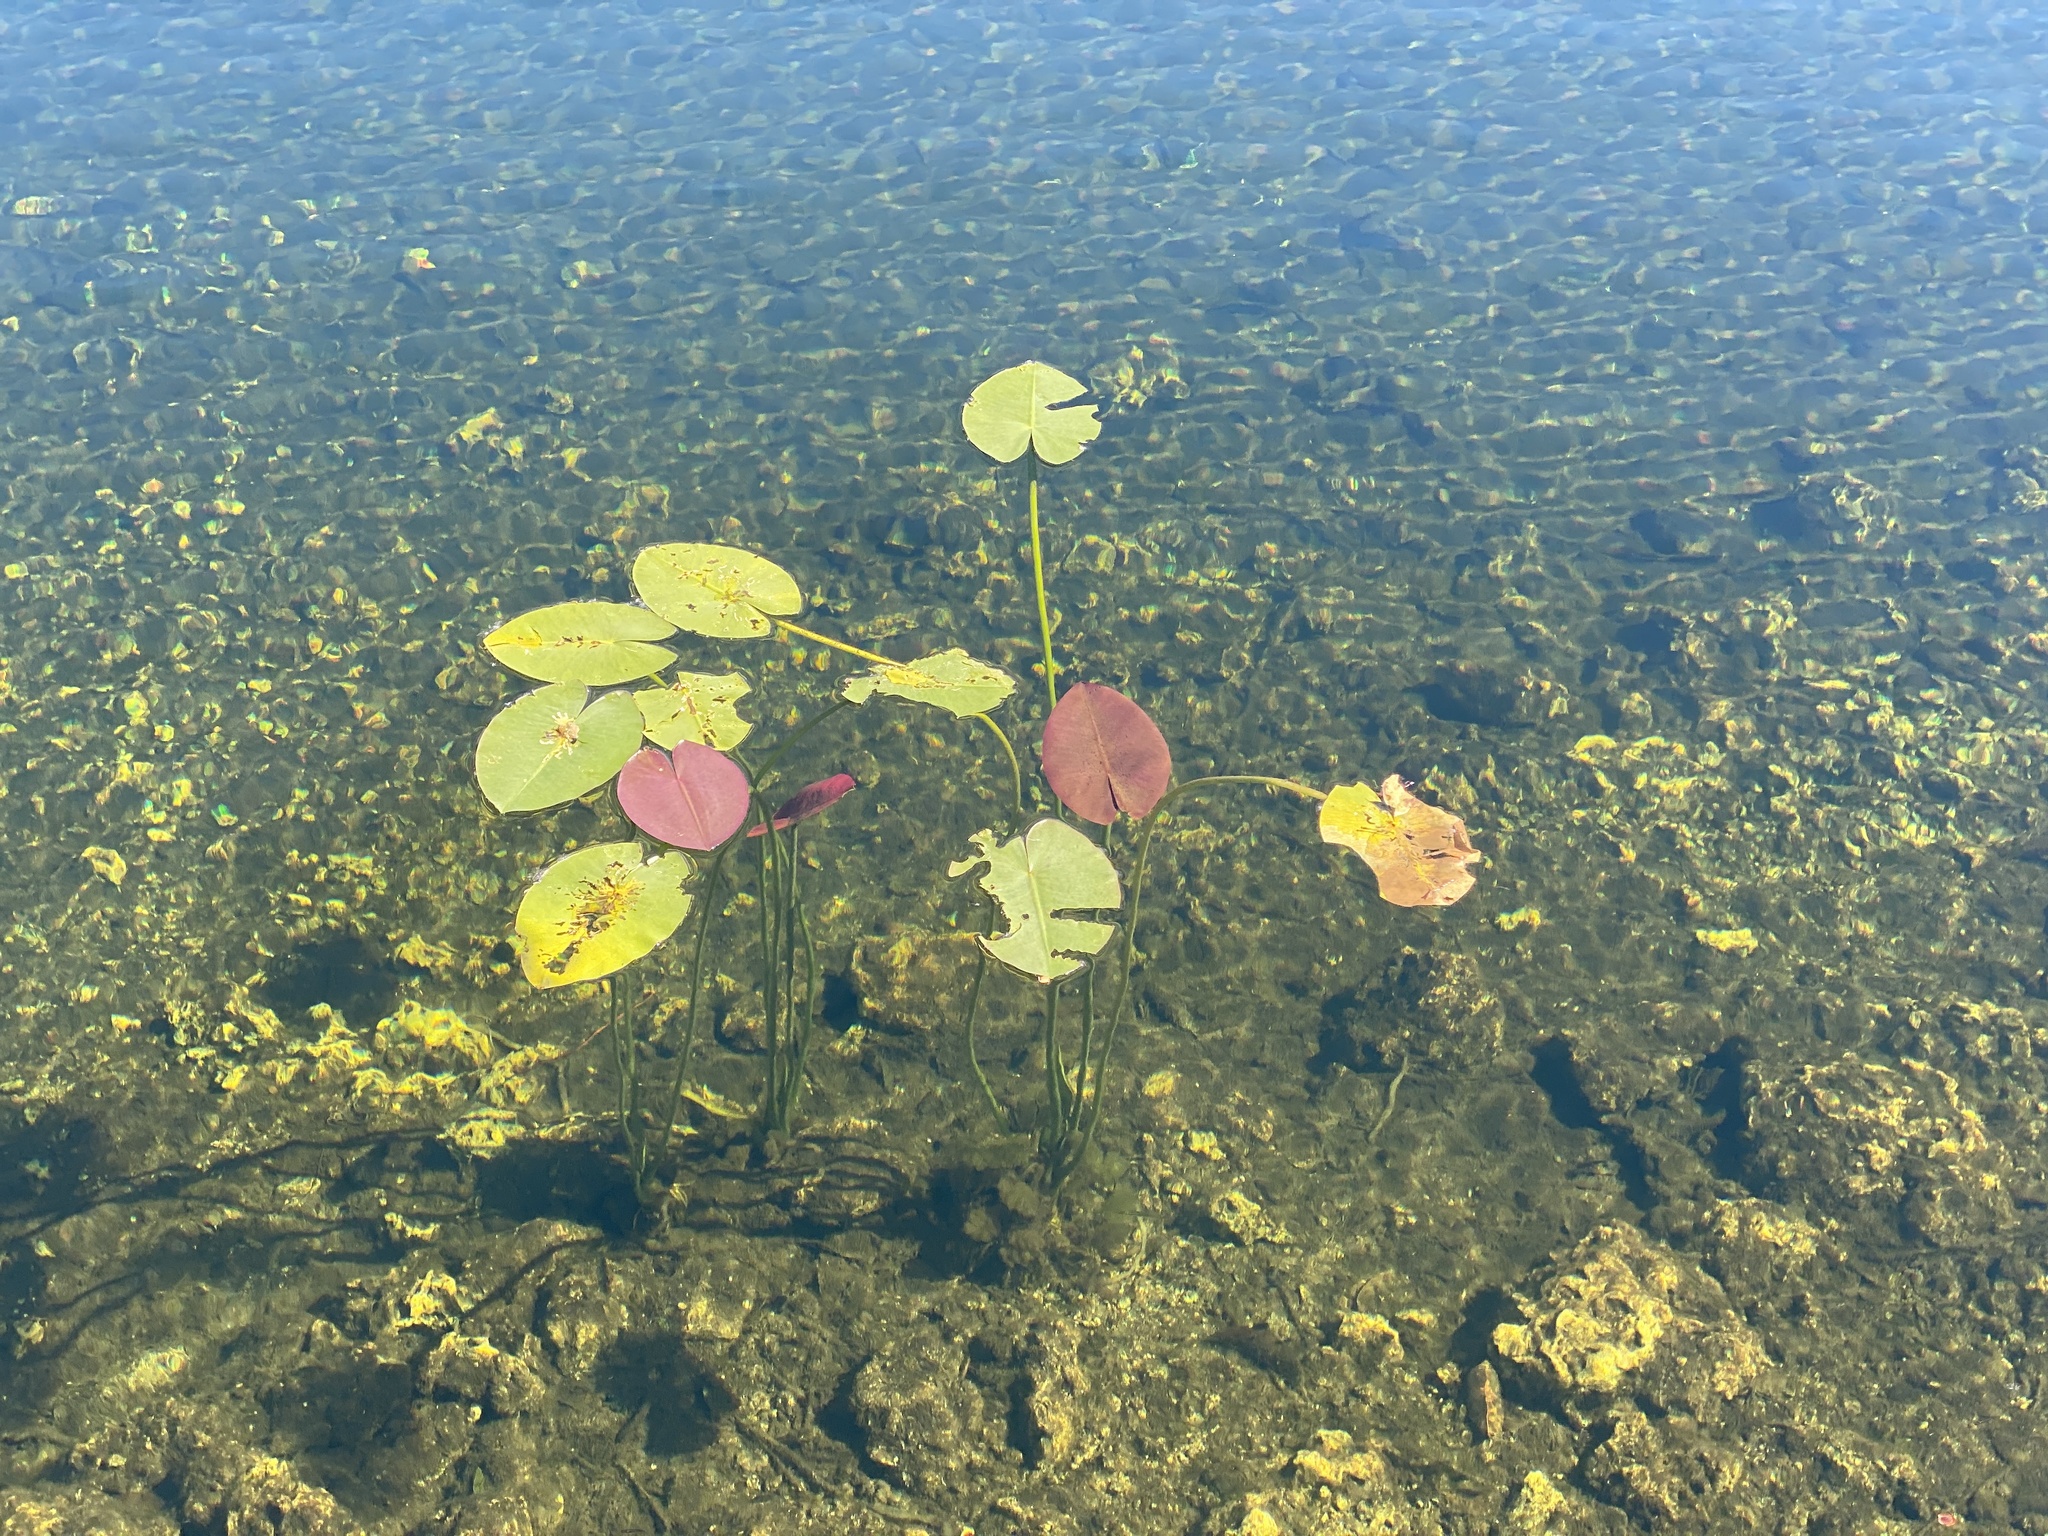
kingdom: Plantae
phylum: Tracheophyta
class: Magnoliopsida
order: Nymphaeales
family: Nymphaeaceae
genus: Nuphar
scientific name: Nuphar advena
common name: Spatter-dock
